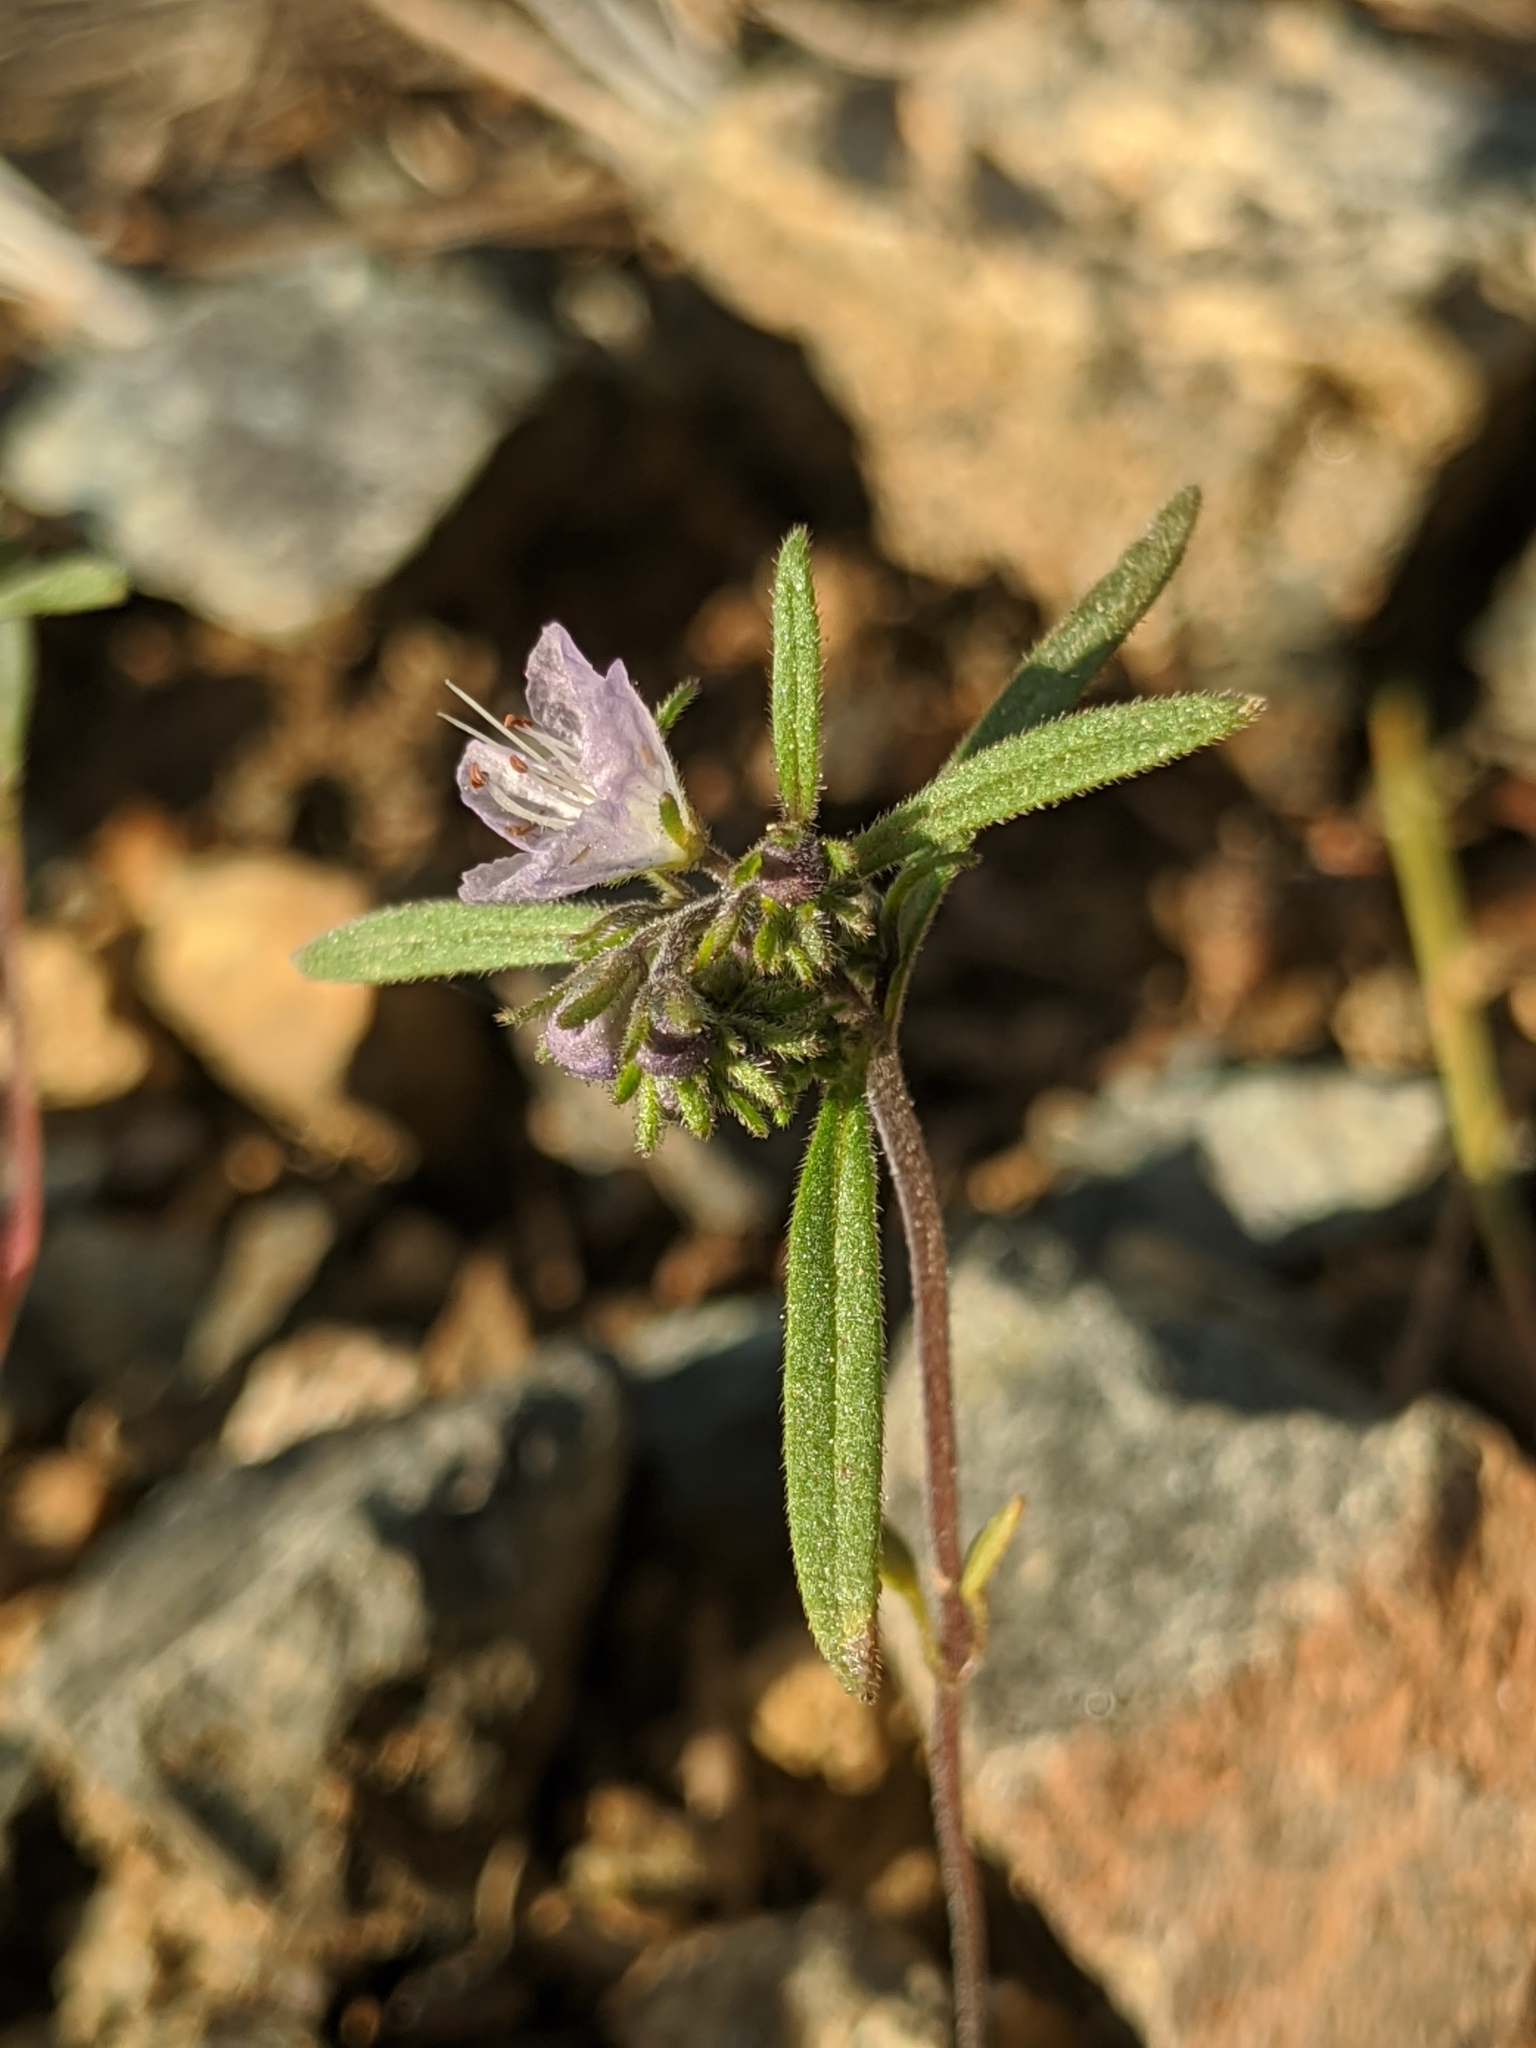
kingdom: Plantae
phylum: Tracheophyta
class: Magnoliopsida
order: Boraginales
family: Hydrophyllaceae
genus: Phacelia
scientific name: Phacelia leonis
